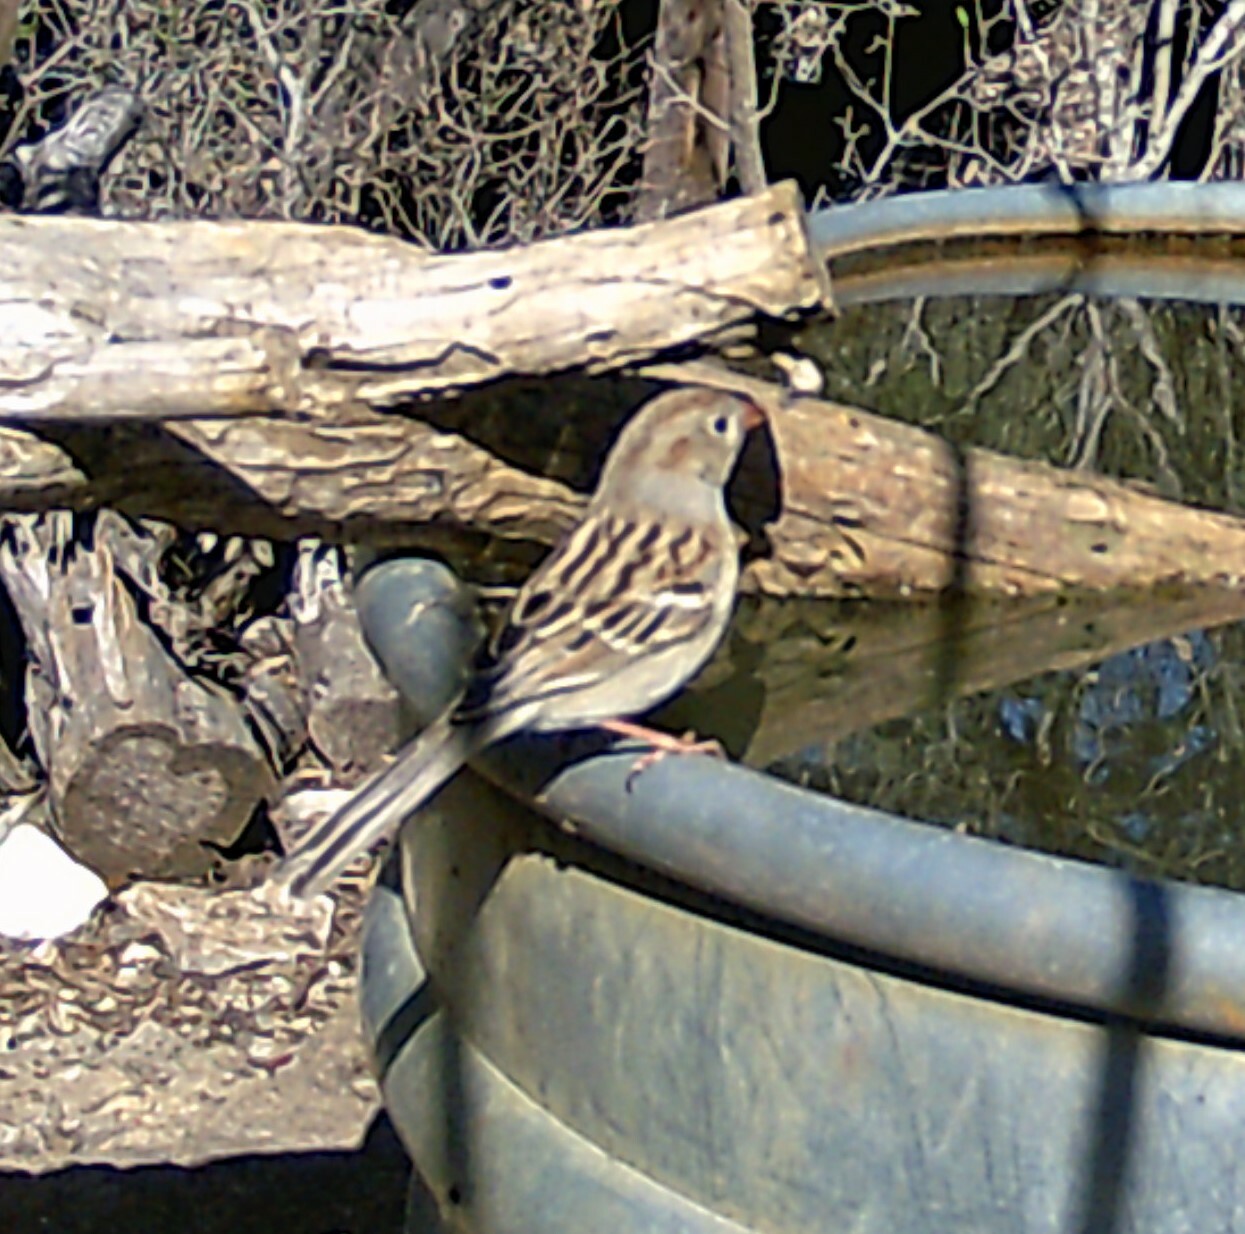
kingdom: Animalia
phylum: Chordata
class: Aves
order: Passeriformes
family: Passerellidae
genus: Spizella
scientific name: Spizella pusilla
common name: Field sparrow
